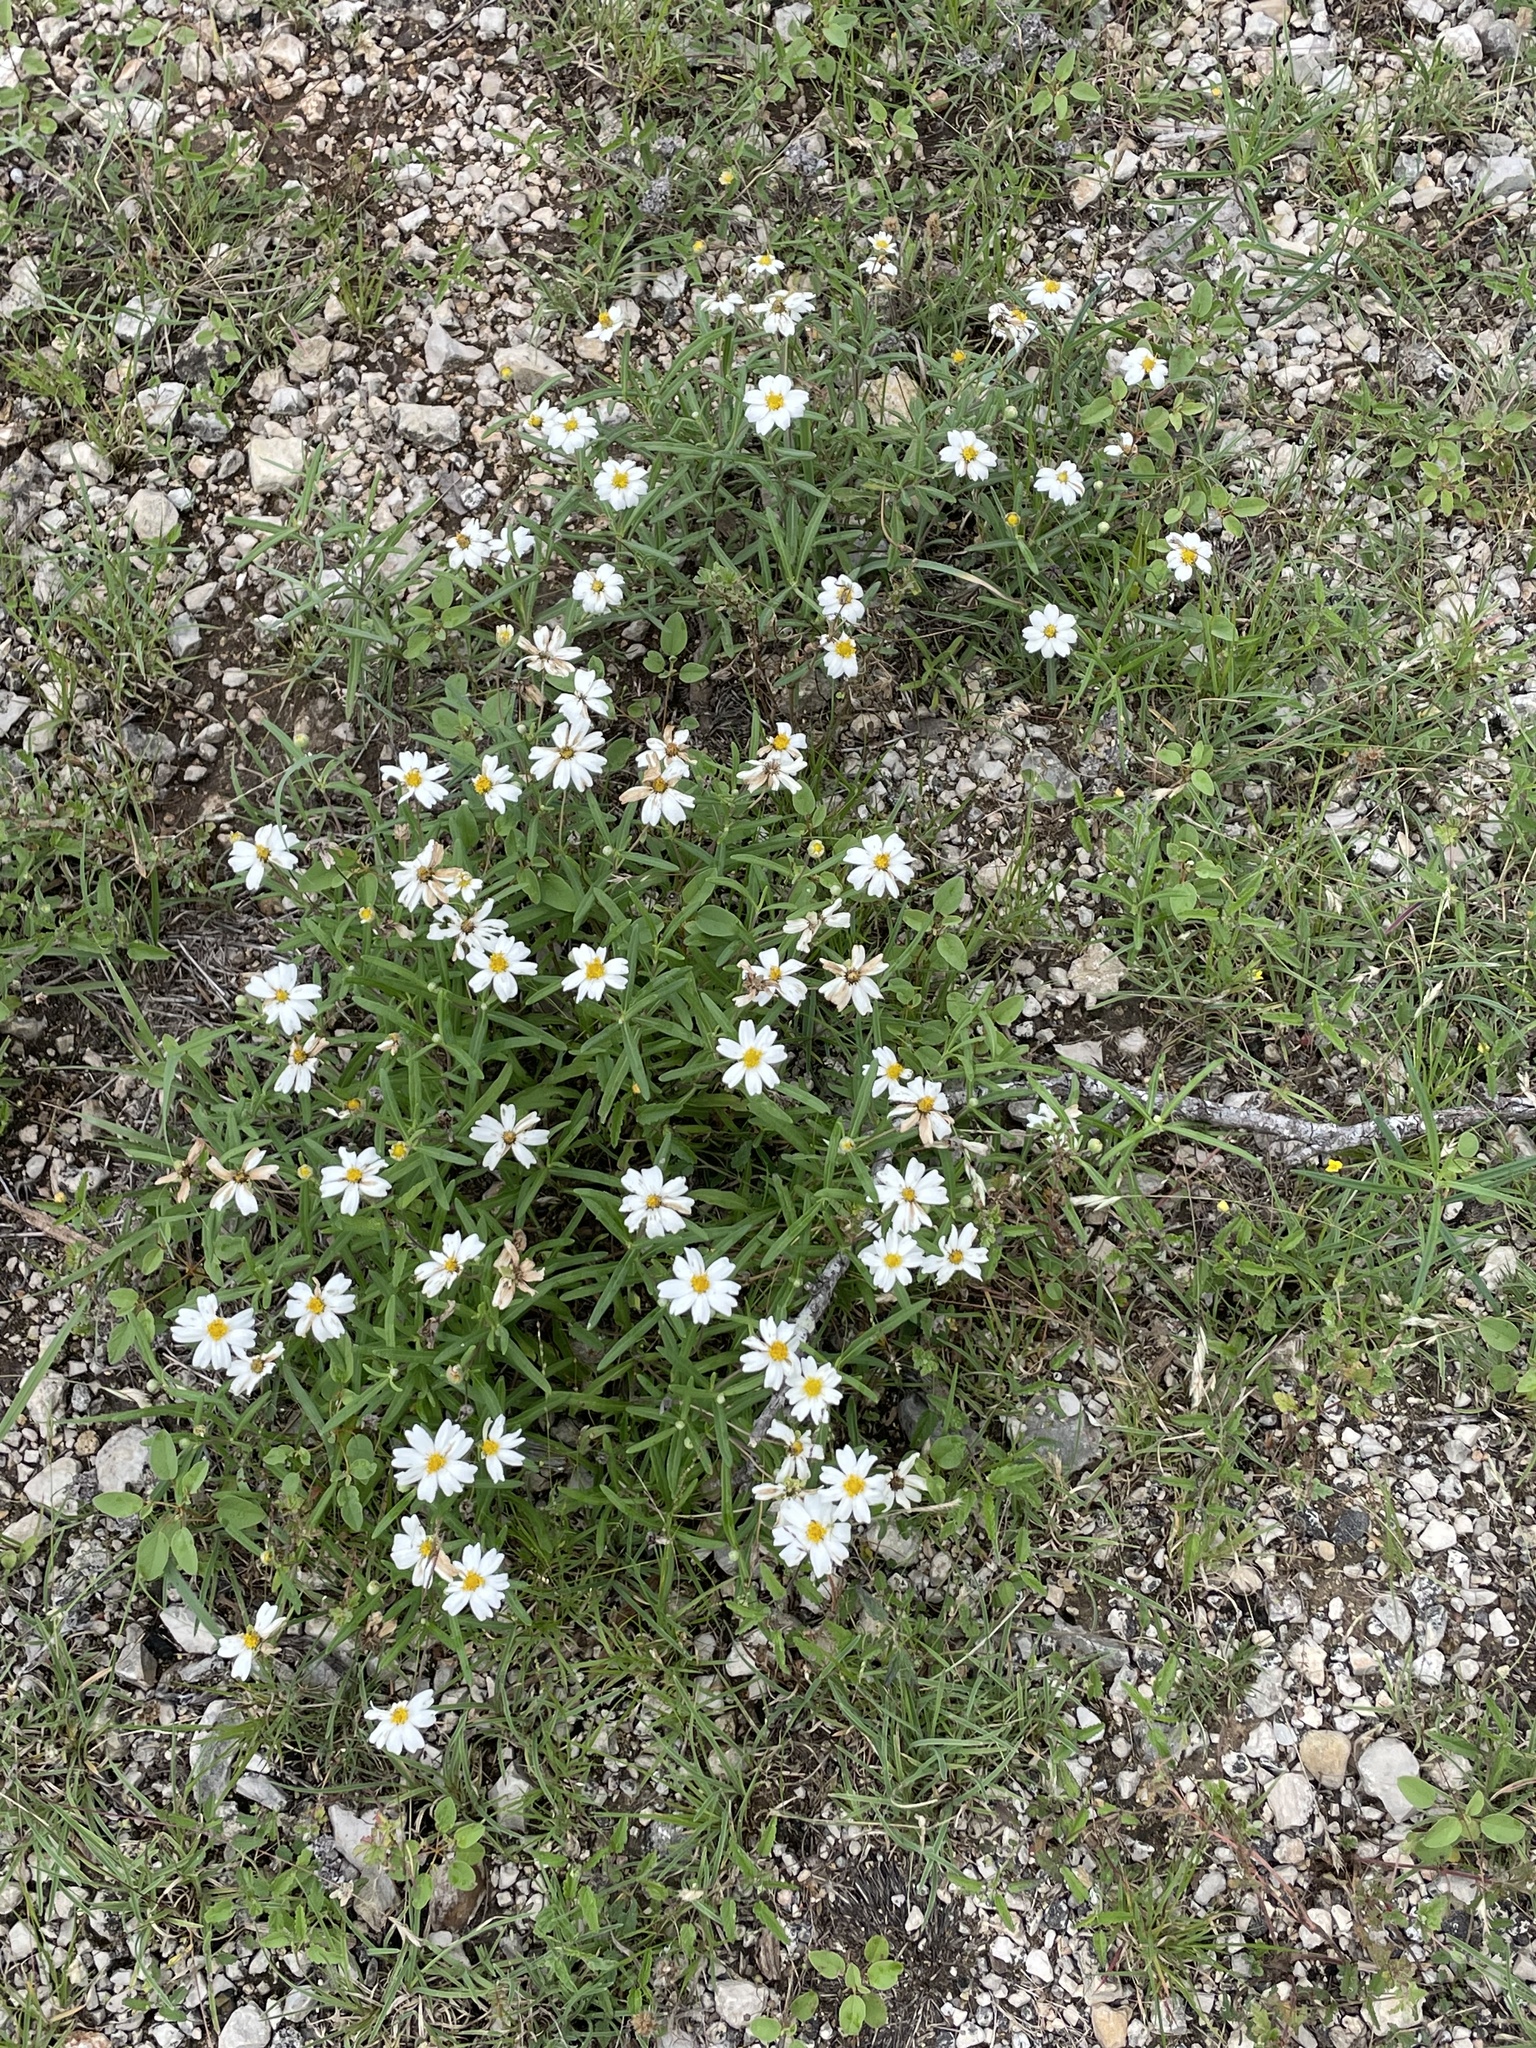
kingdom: Plantae
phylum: Tracheophyta
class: Magnoliopsida
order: Asterales
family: Asteraceae
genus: Melampodium
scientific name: Melampodium leucanthum
